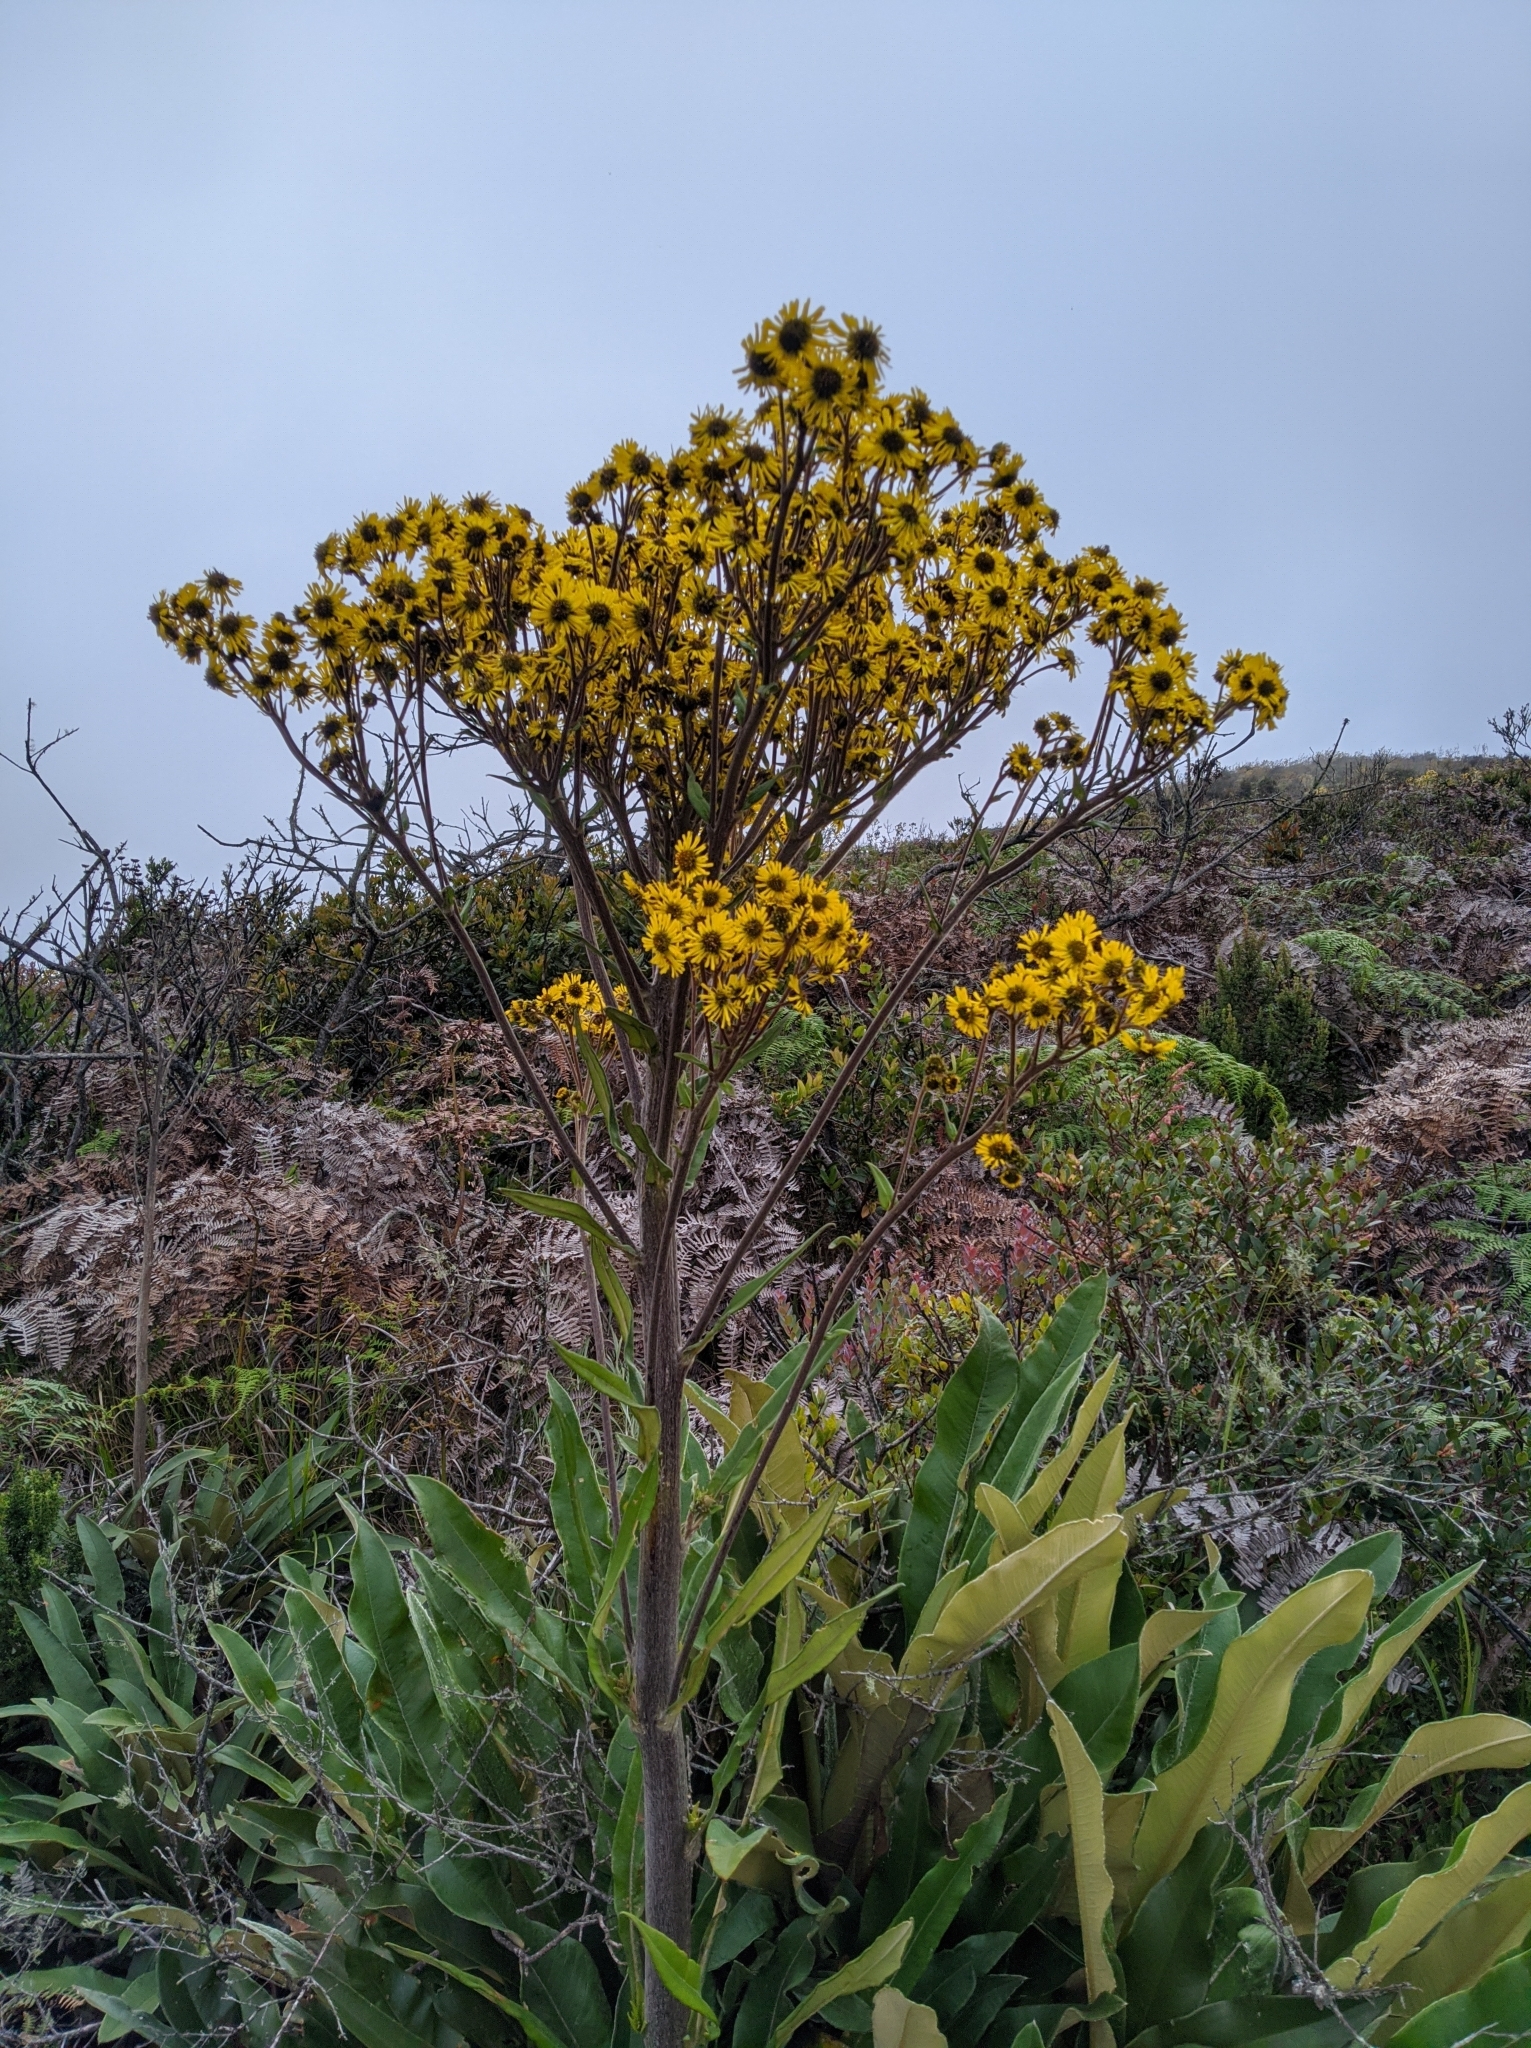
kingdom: Plantae
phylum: Tracheophyta
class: Magnoliopsida
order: Asterales
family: Asteraceae
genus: Espeletia
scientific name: Espeletia bracteosa
